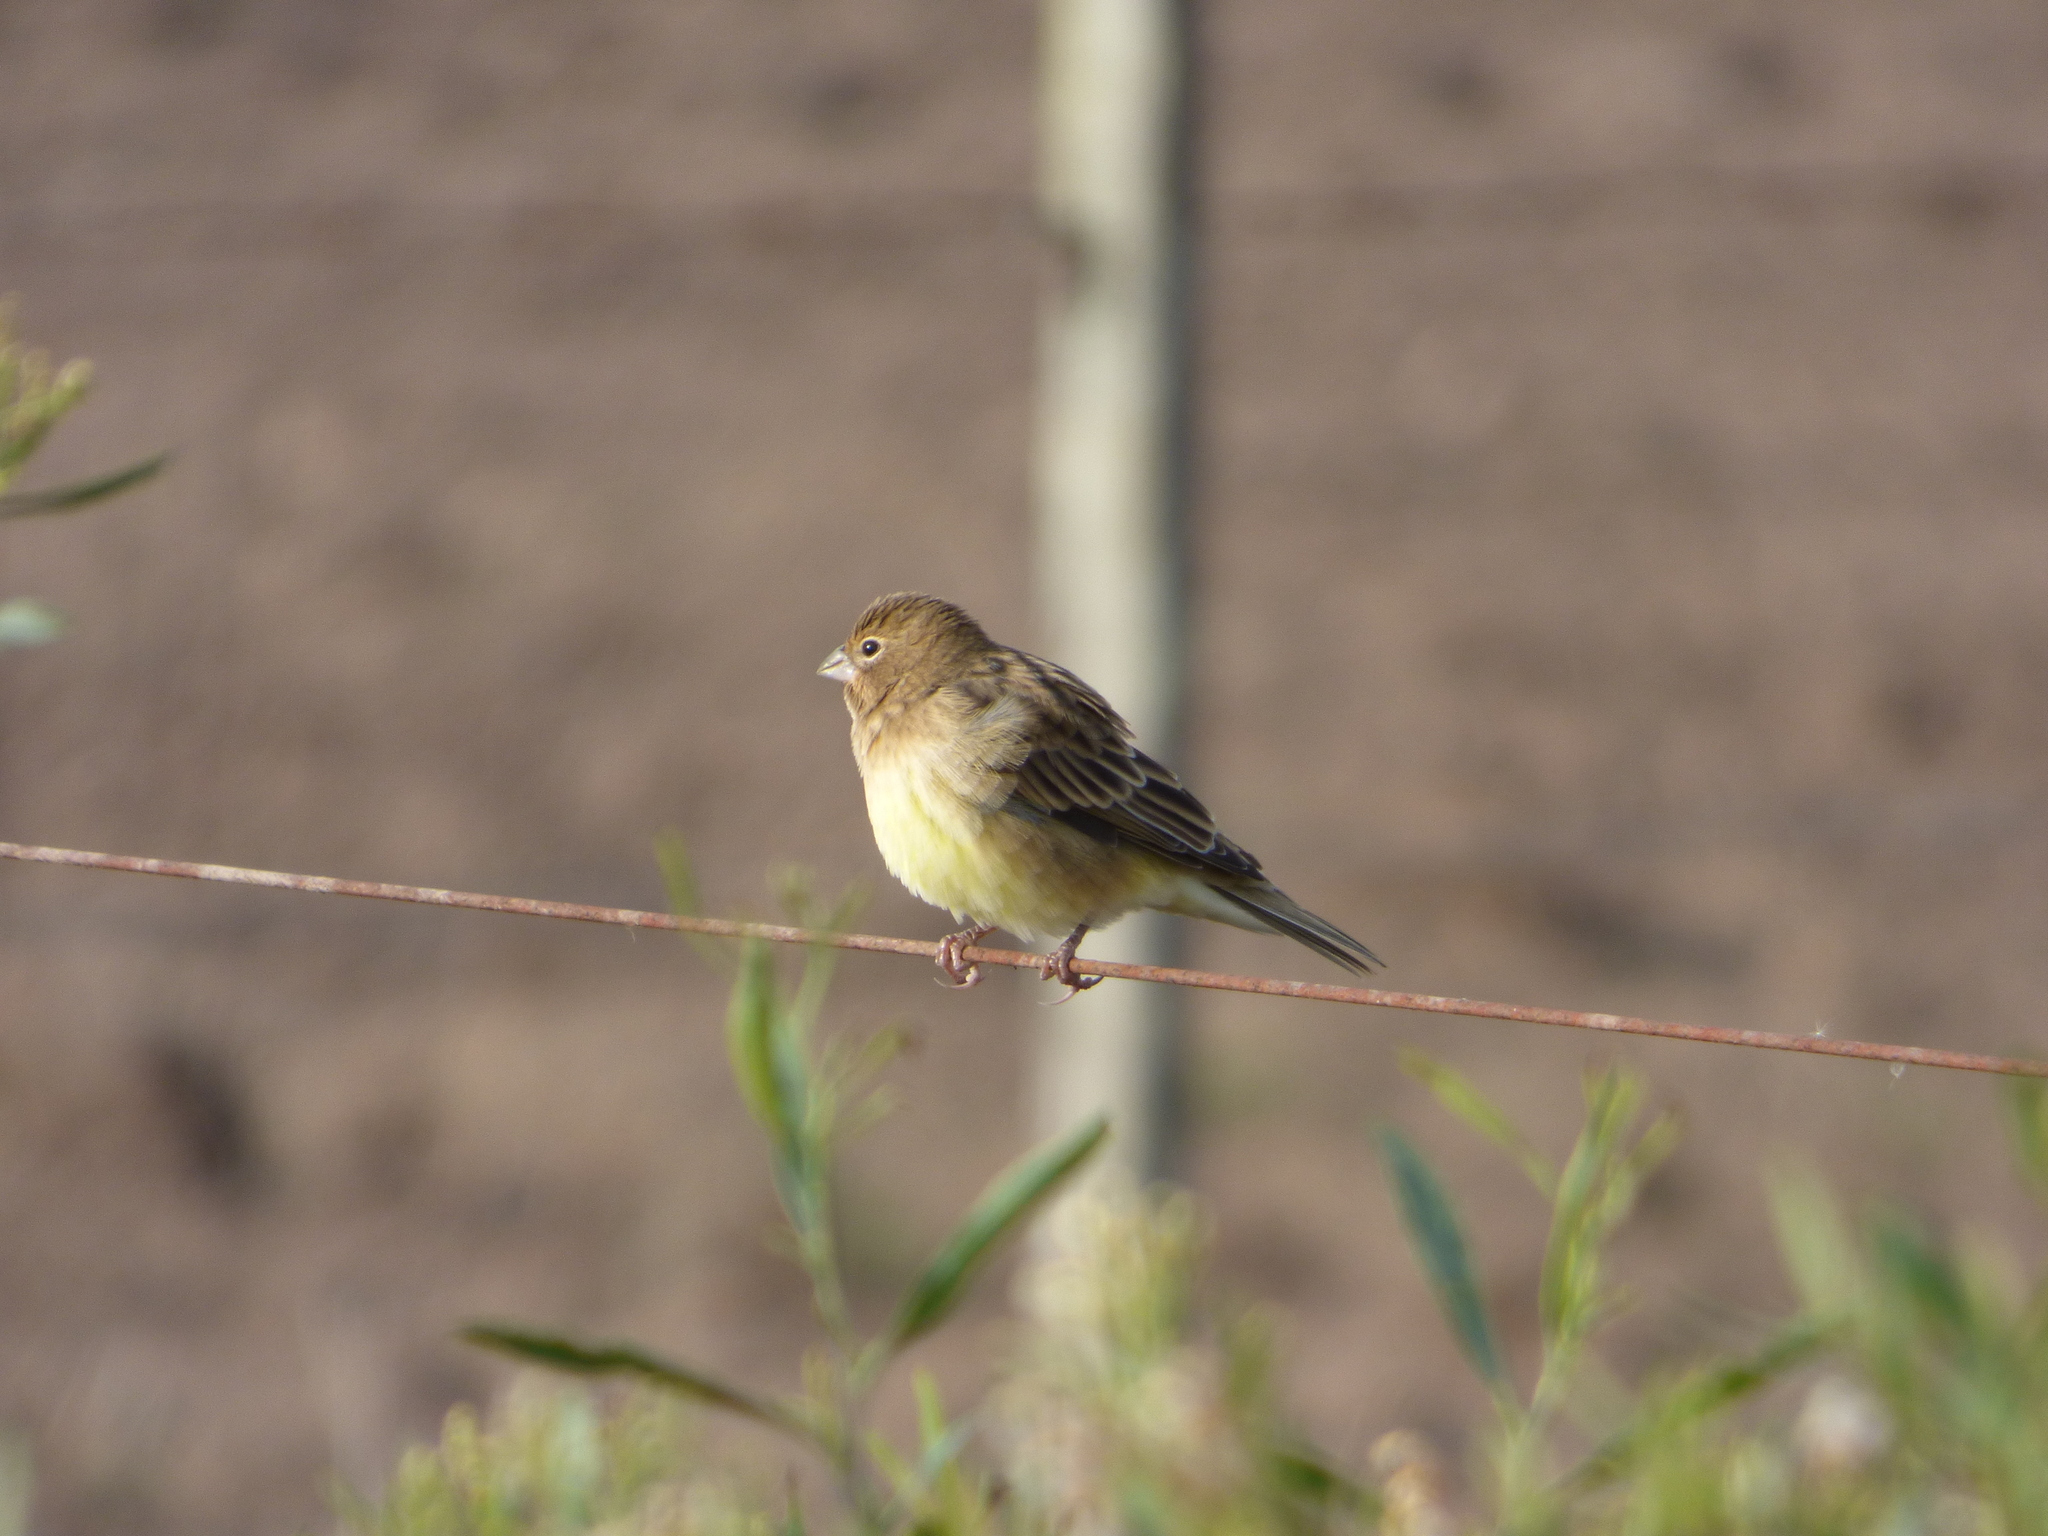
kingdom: Animalia
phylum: Chordata
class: Aves
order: Passeriformes
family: Thraupidae
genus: Sicalis
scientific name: Sicalis luteola
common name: Grassland yellow-finch
